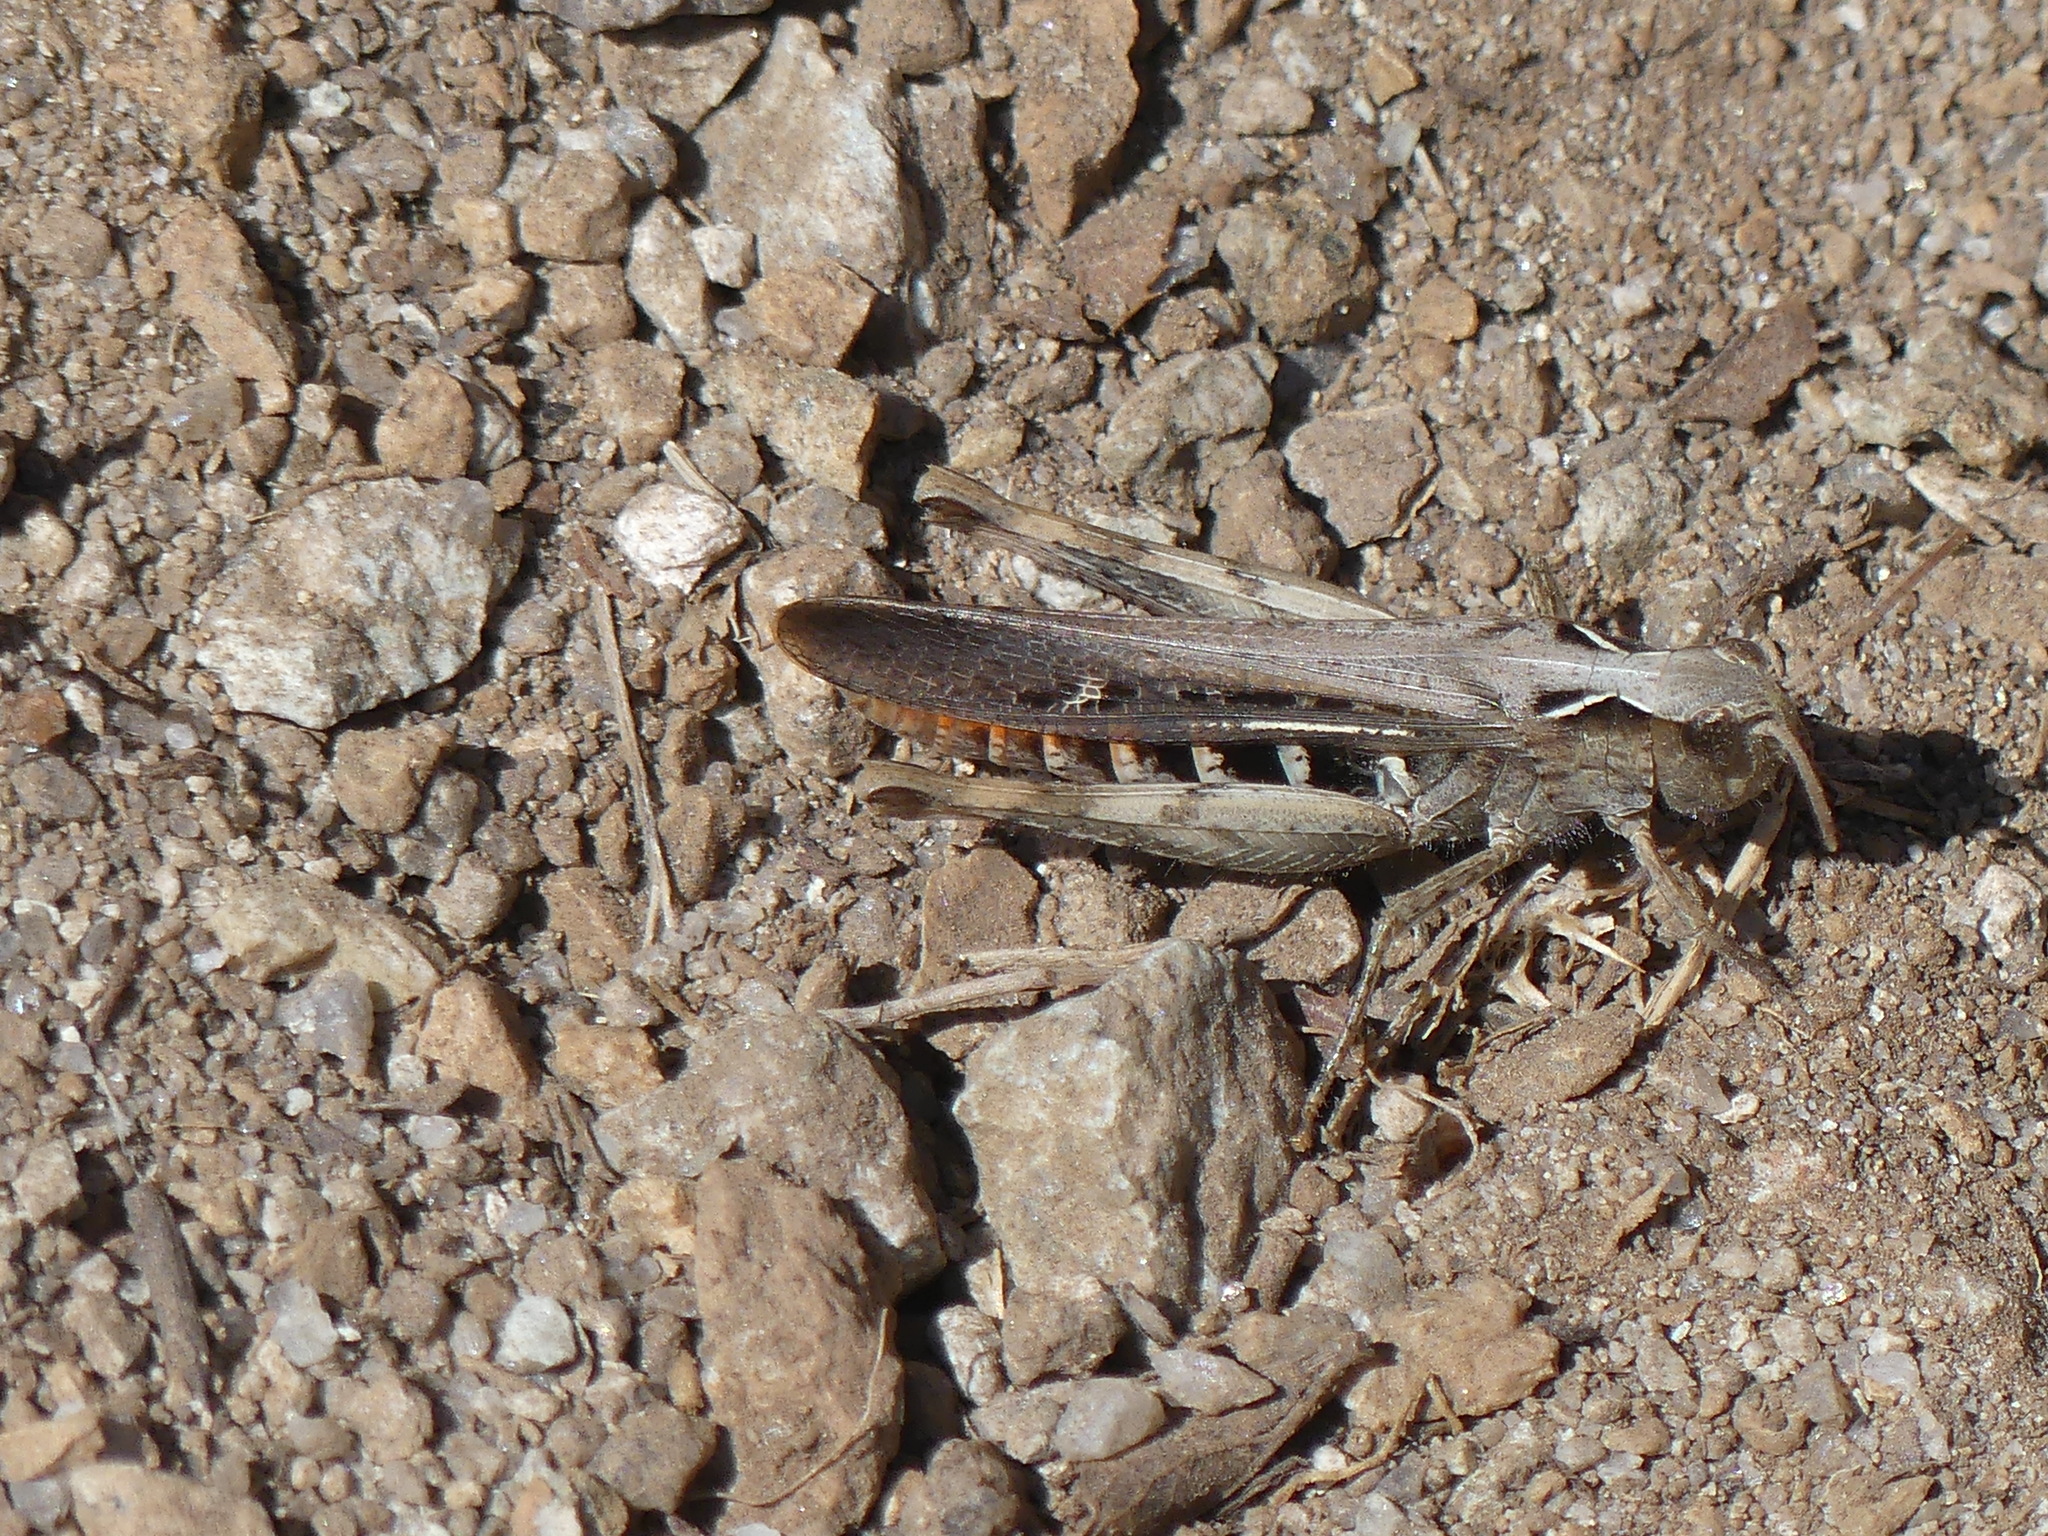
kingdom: Animalia
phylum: Arthropoda
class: Insecta
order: Orthoptera
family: Acrididae
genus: Chorthippus
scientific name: Chorthippus brunneus
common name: Field grasshopper
